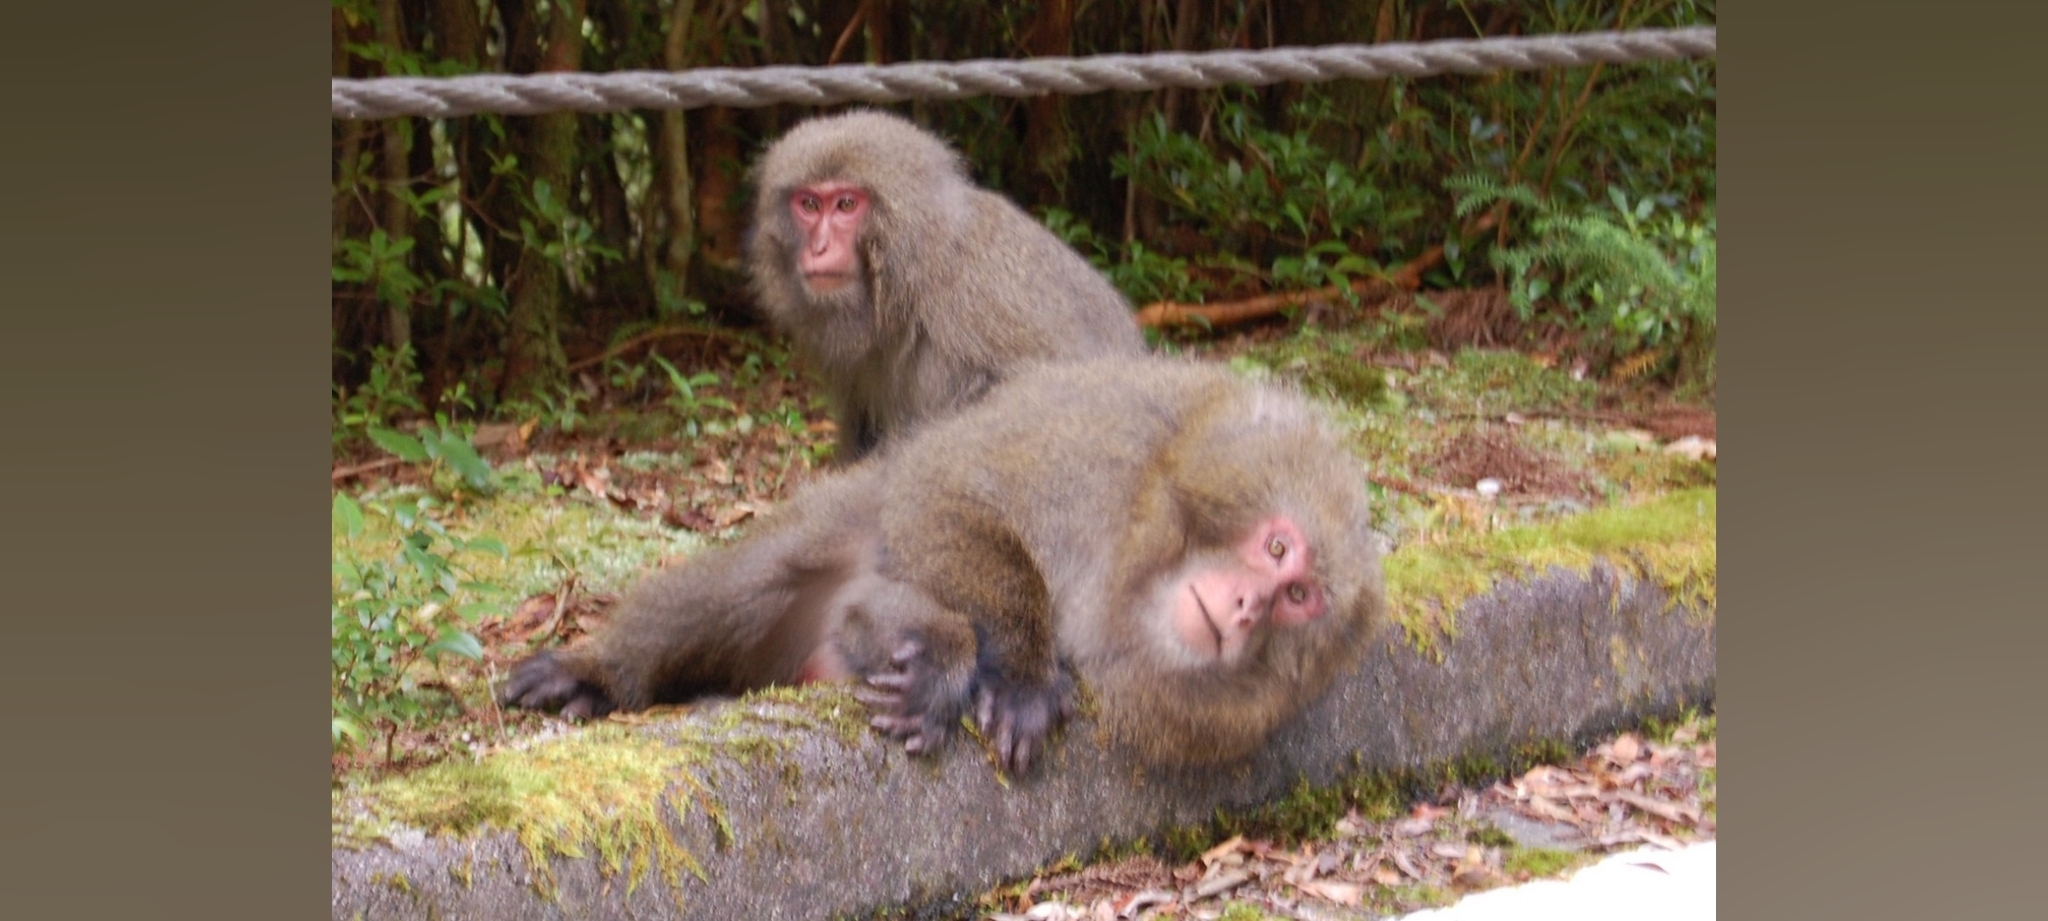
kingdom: Animalia
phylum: Chordata
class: Mammalia
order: Primates
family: Cercopithecidae
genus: Macaca
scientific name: Macaca fuscata
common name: Japanese macaque
